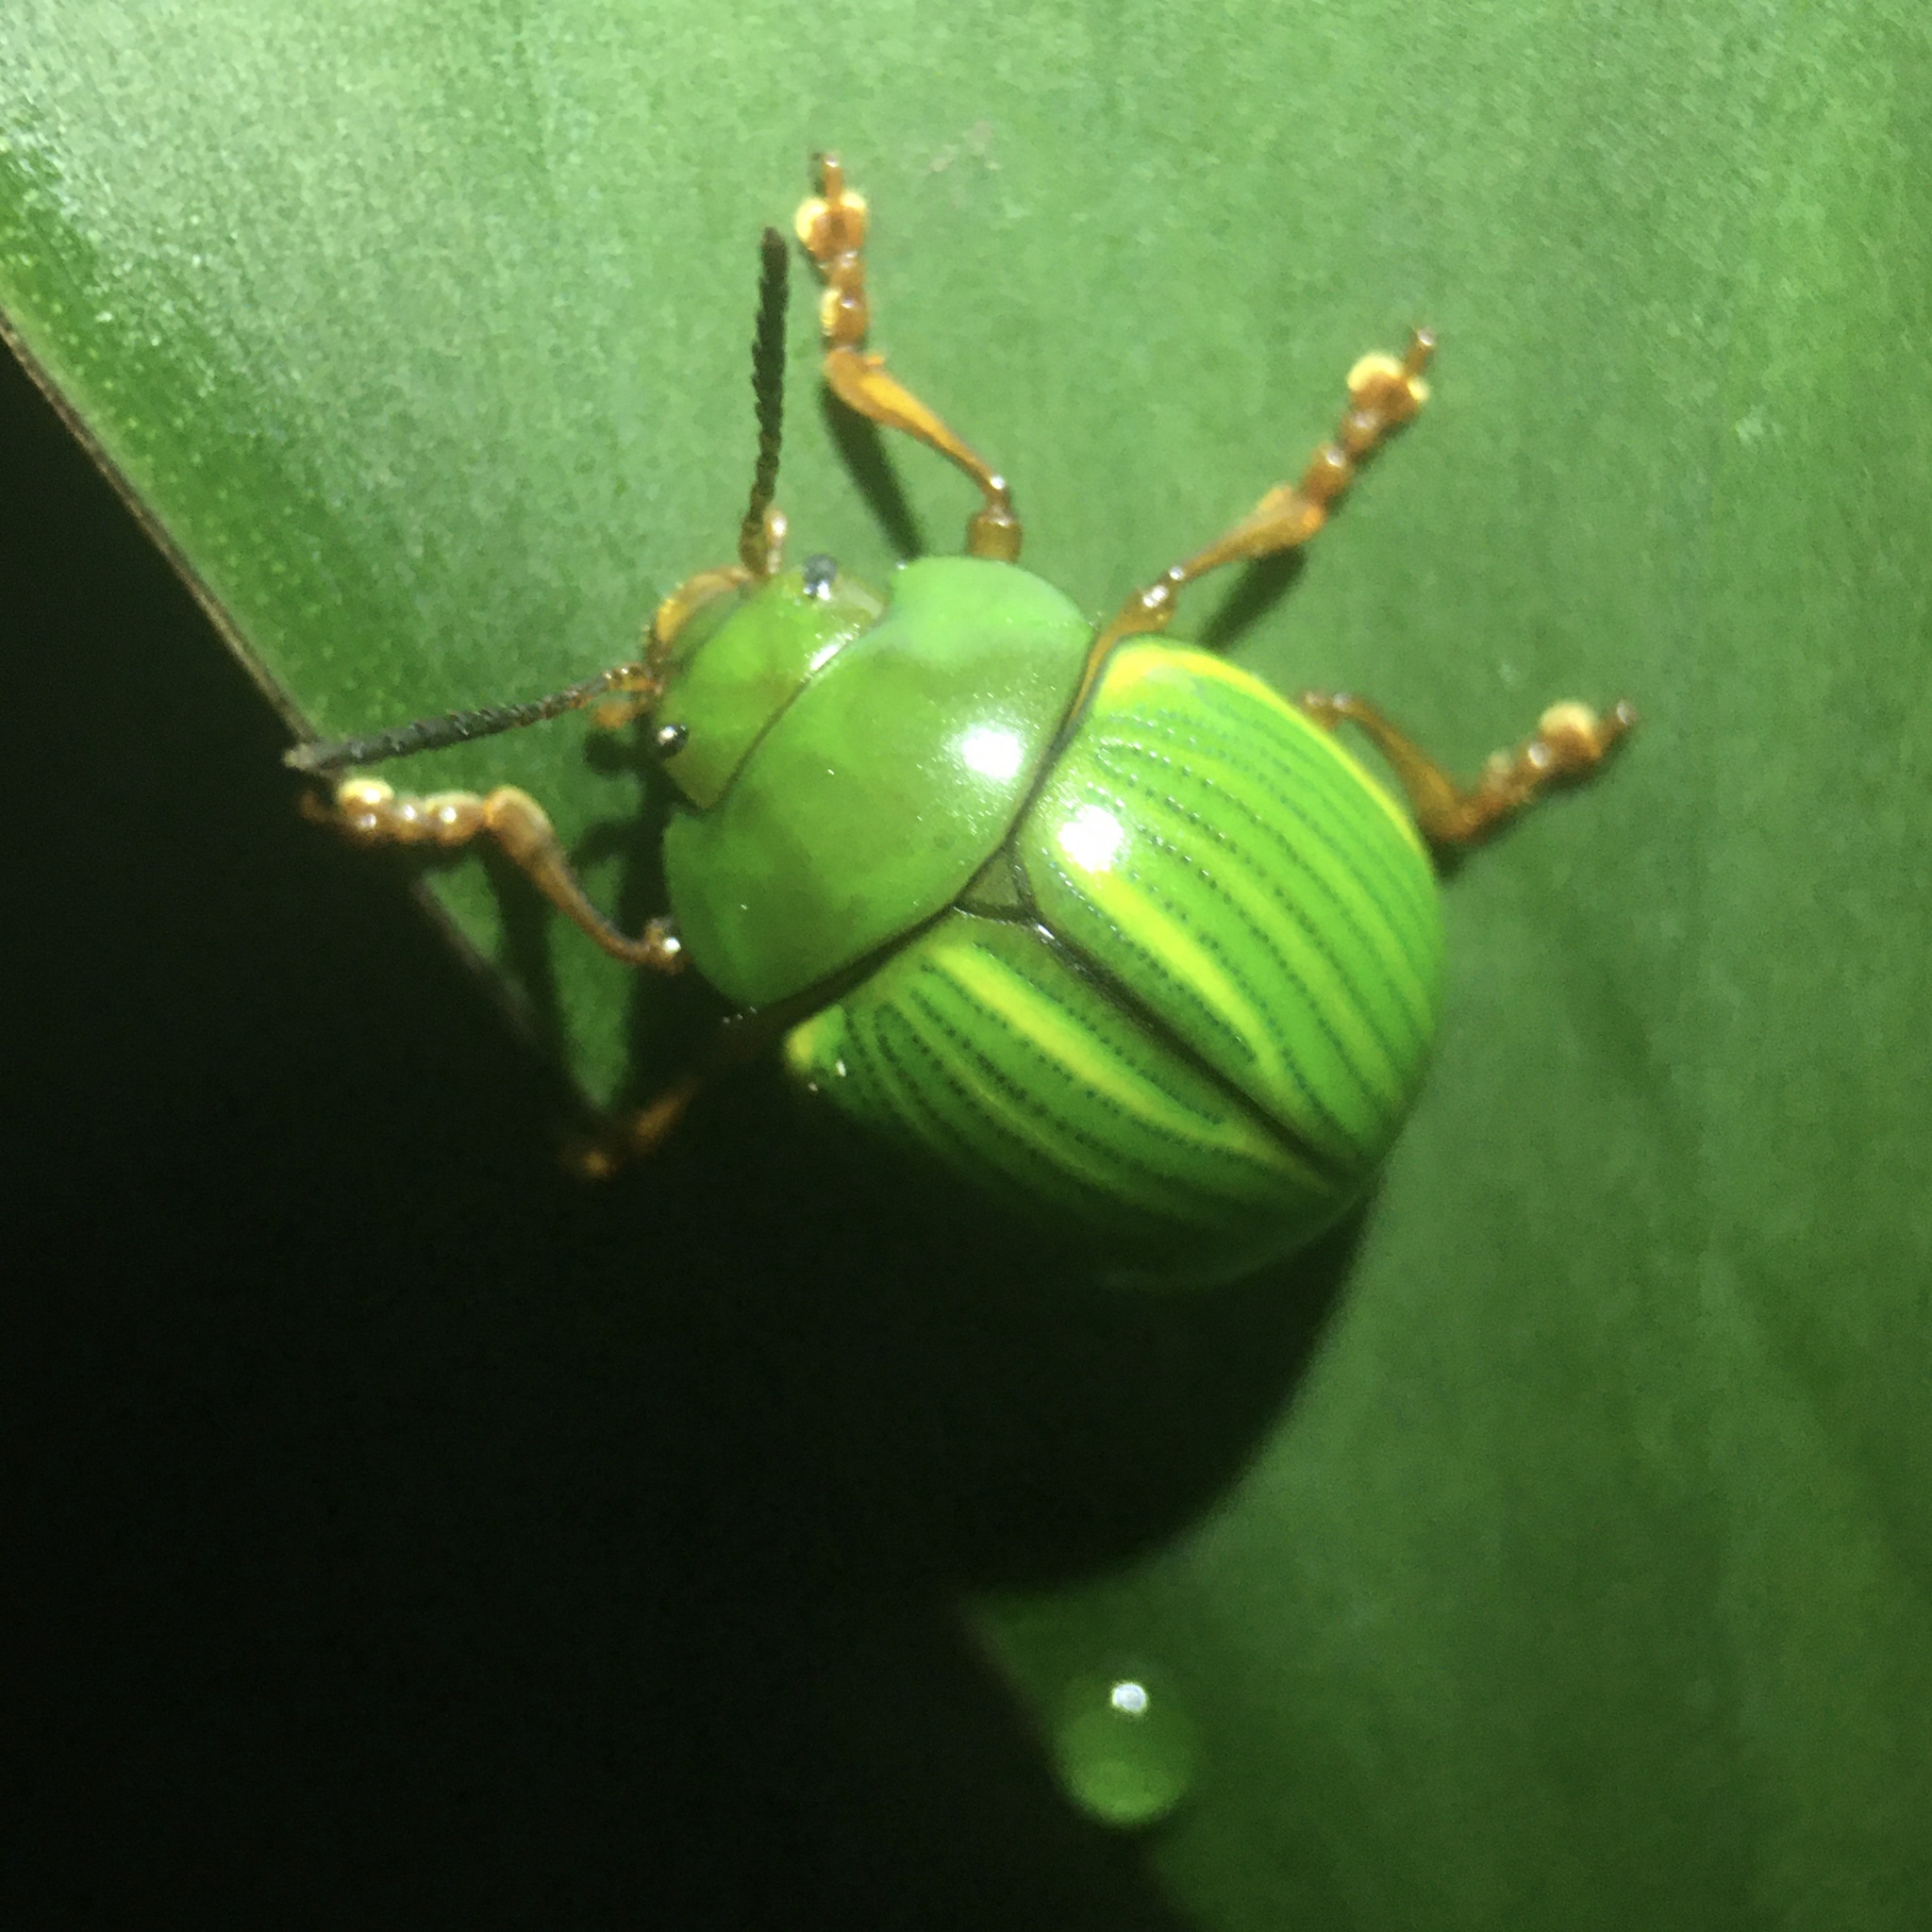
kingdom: Animalia
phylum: Arthropoda
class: Insecta
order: Coleoptera
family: Chrysomelidae
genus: Platyphora
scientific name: Platyphora
